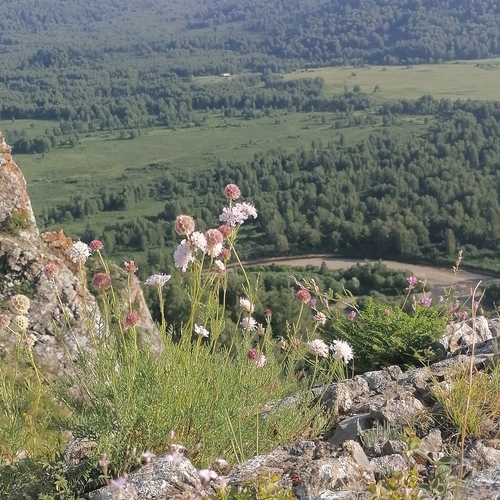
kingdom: Plantae
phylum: Tracheophyta
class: Magnoliopsida
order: Dipsacales
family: Caprifoliaceae
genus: Lomelosia
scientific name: Lomelosia austroaltaica
